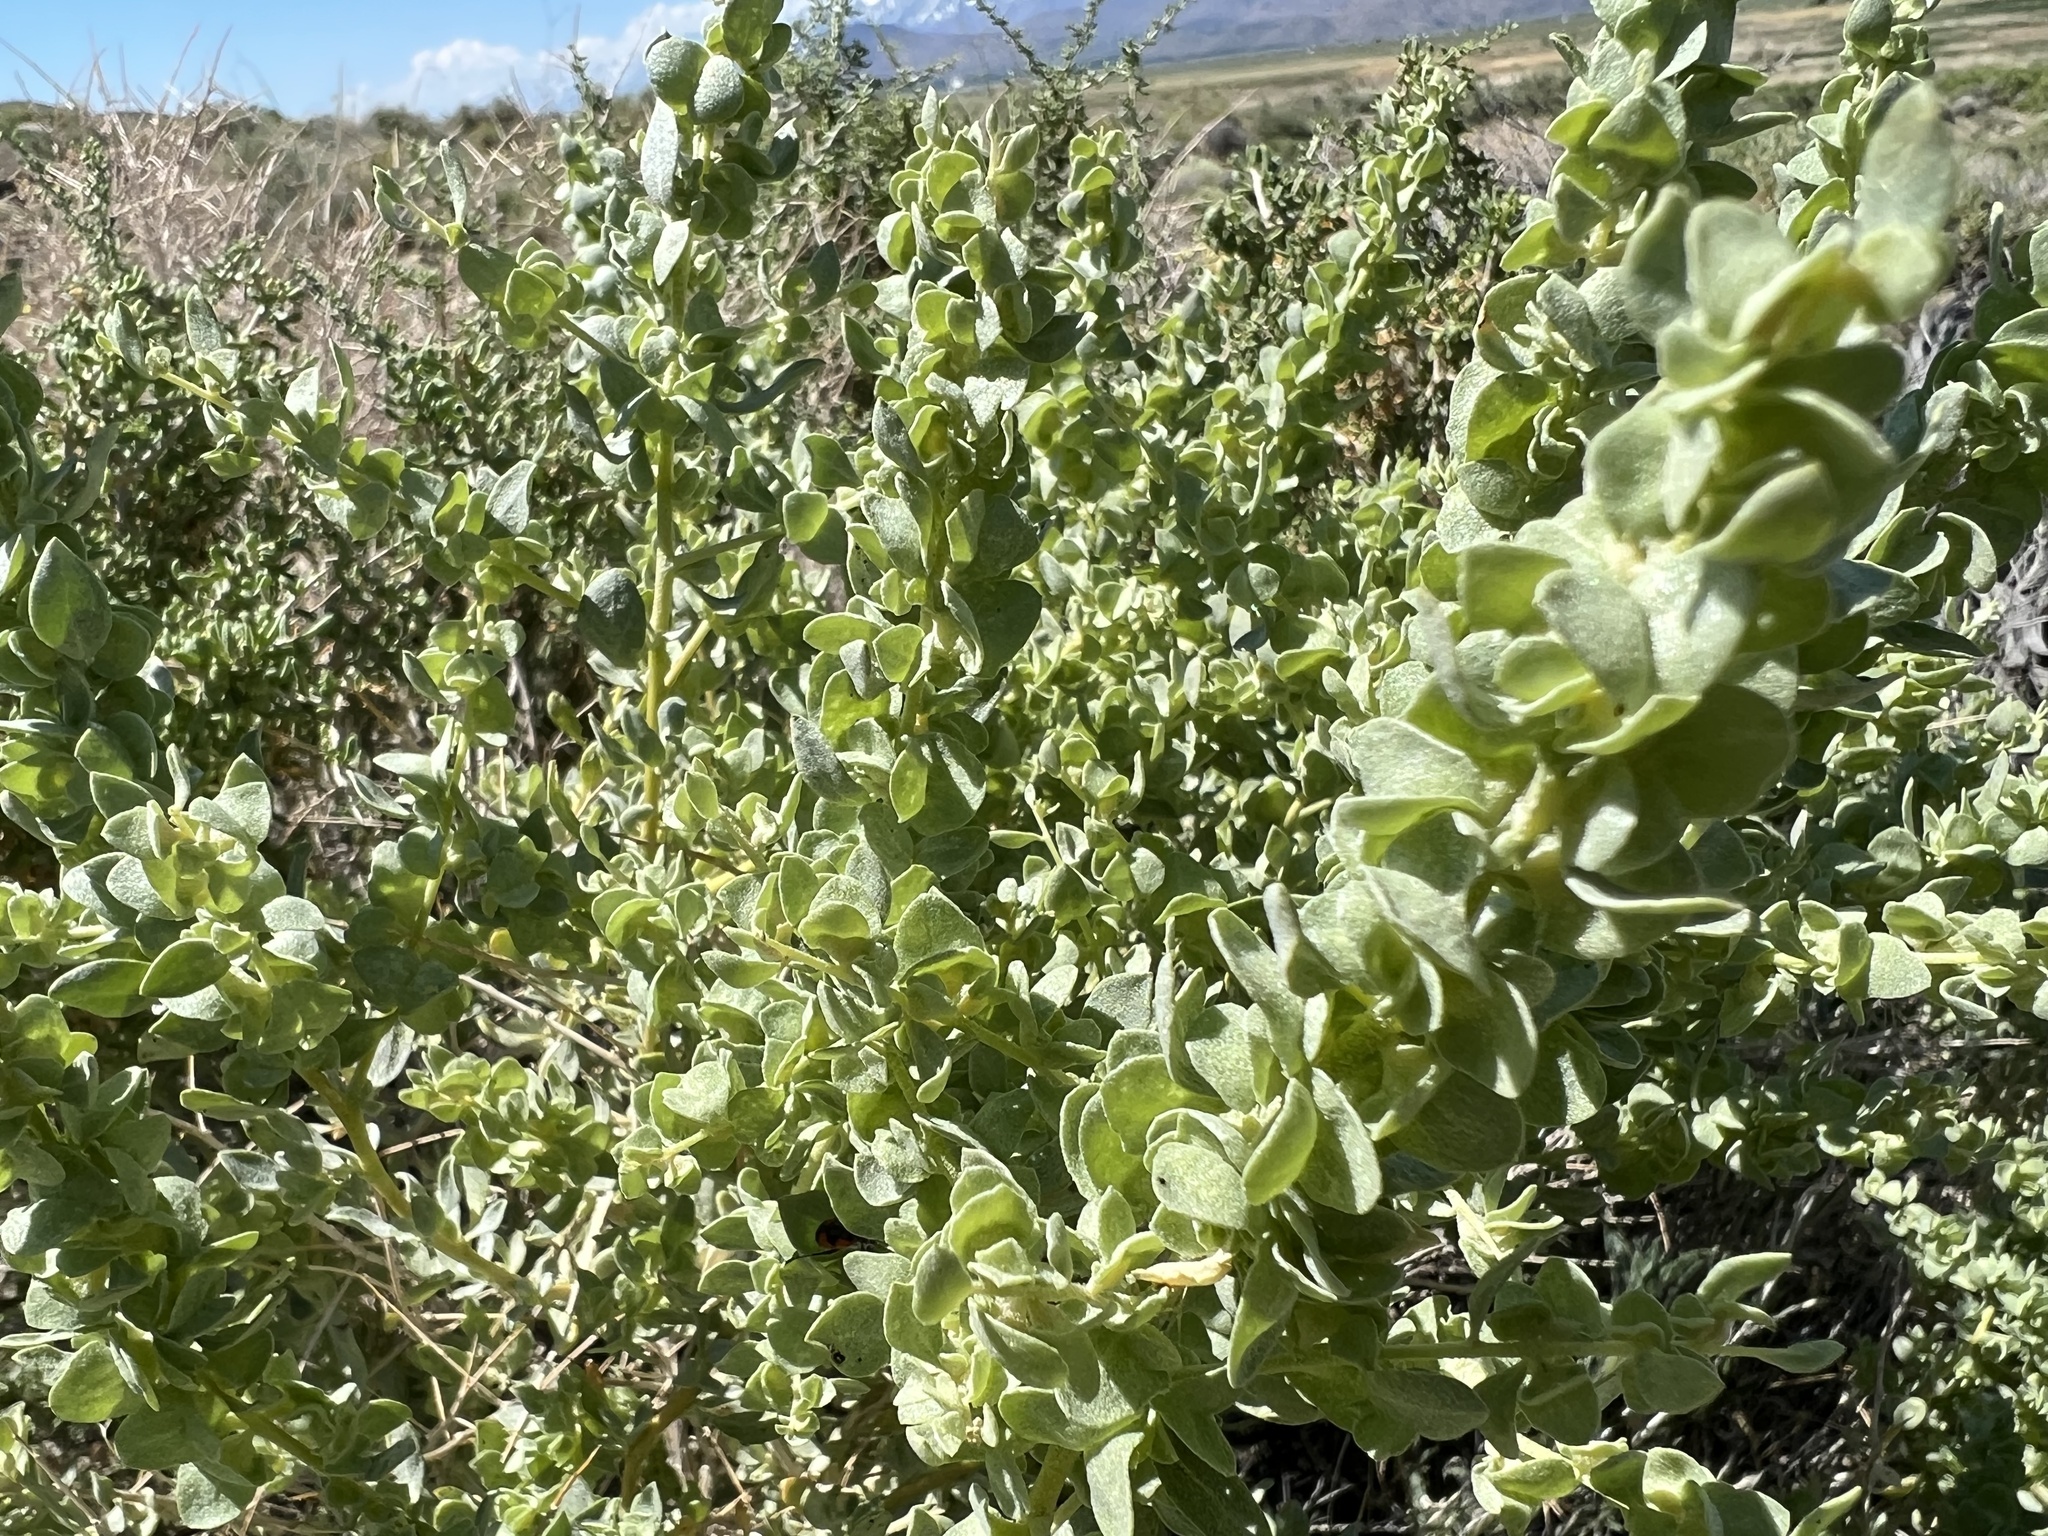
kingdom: Plantae
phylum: Tracheophyta
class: Magnoliopsida
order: Caryophyllales
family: Amaranthaceae
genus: Atriplex
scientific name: Atriplex confertifolia
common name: Shadscale
